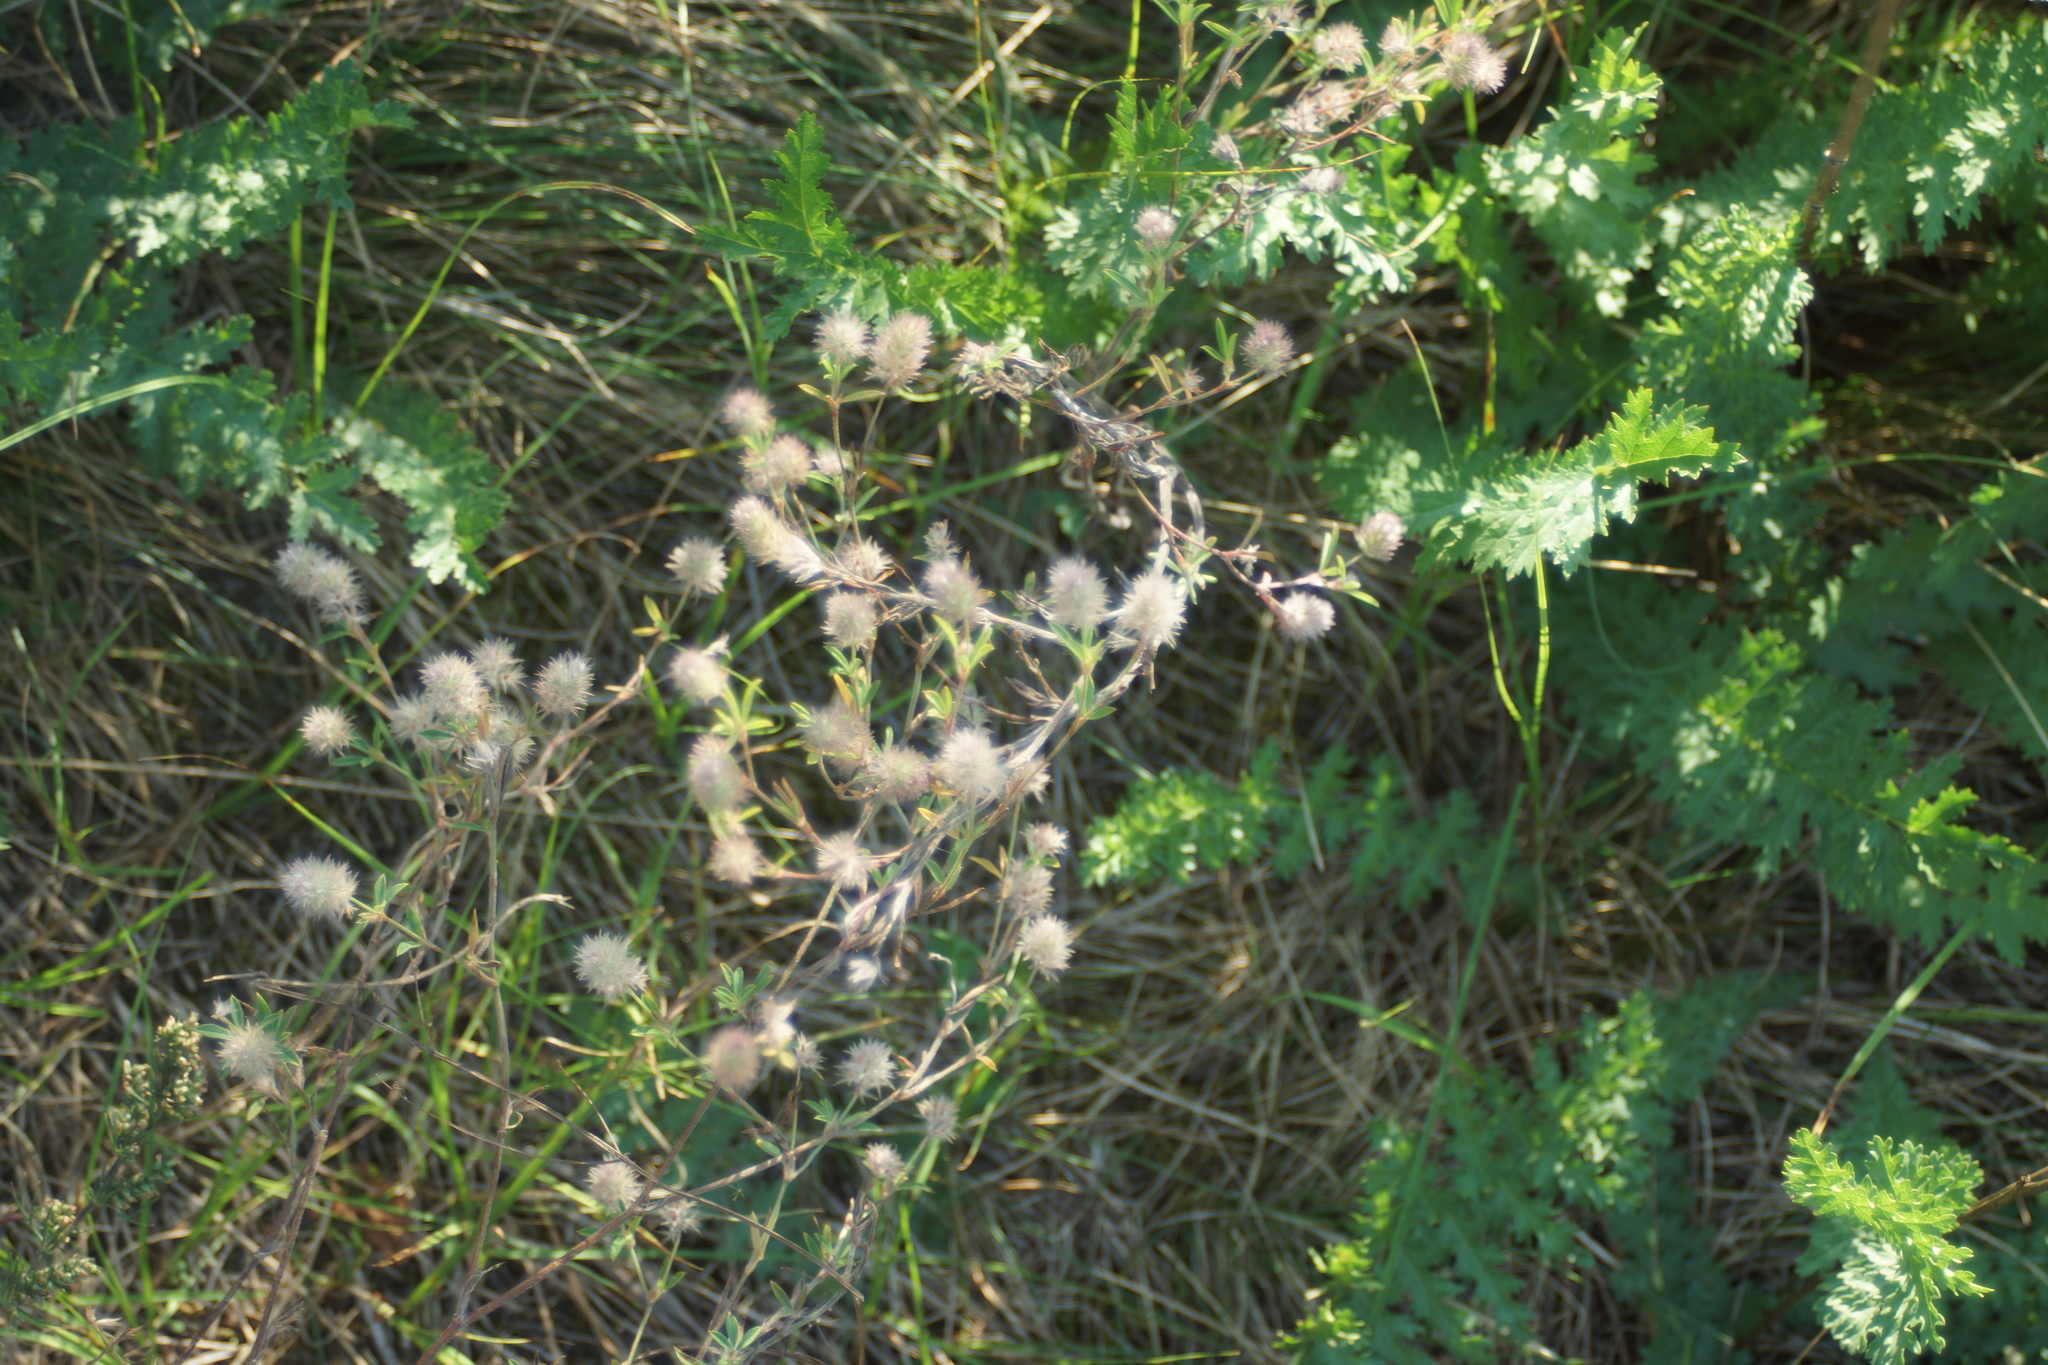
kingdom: Plantae
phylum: Tracheophyta
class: Magnoliopsida
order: Fabales
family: Fabaceae
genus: Trifolium
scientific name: Trifolium arvense
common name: Hare's-foot clover
